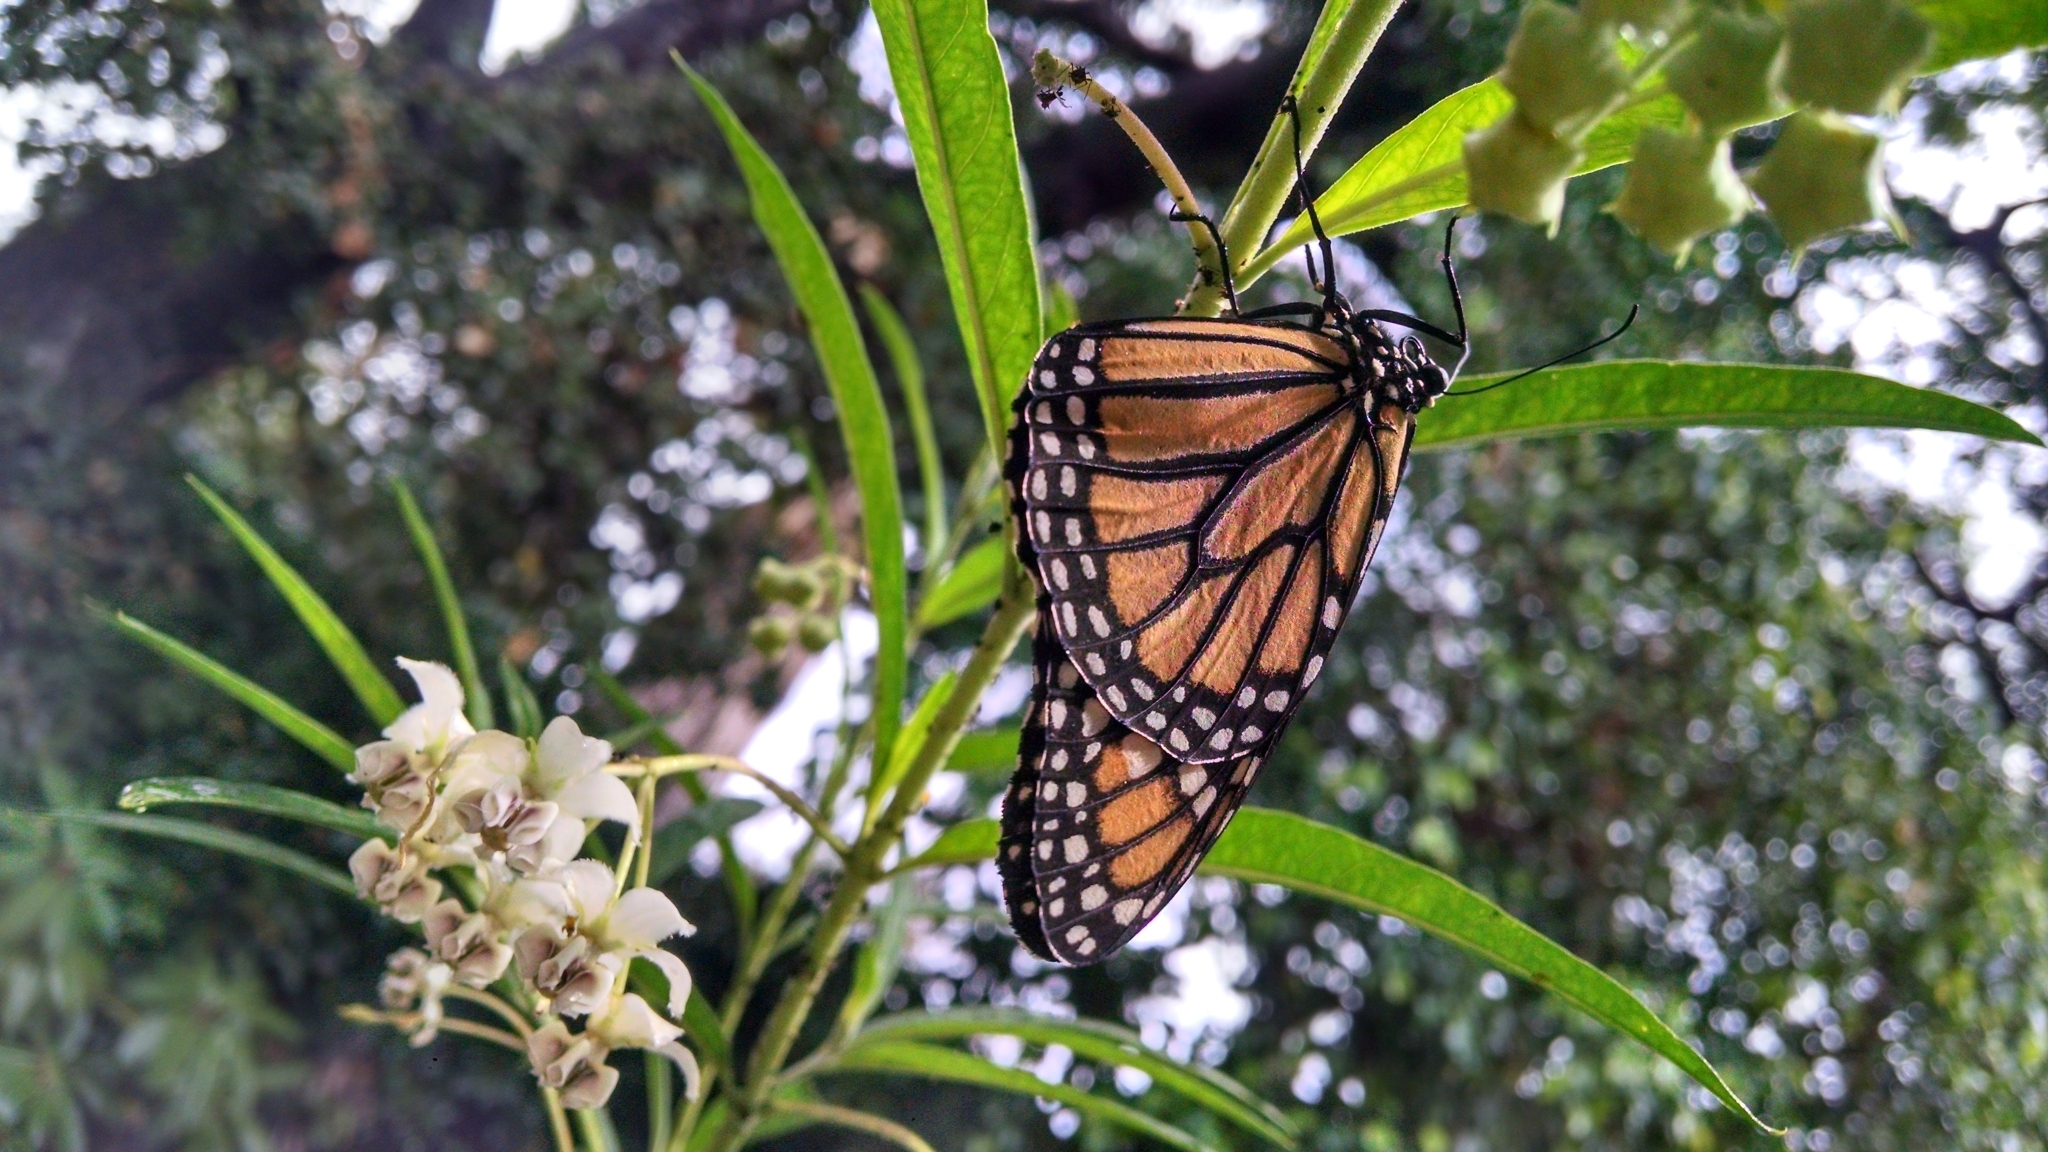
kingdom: Animalia
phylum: Arthropoda
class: Insecta
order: Lepidoptera
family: Nymphalidae
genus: Danaus
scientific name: Danaus plexippus
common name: Monarch
